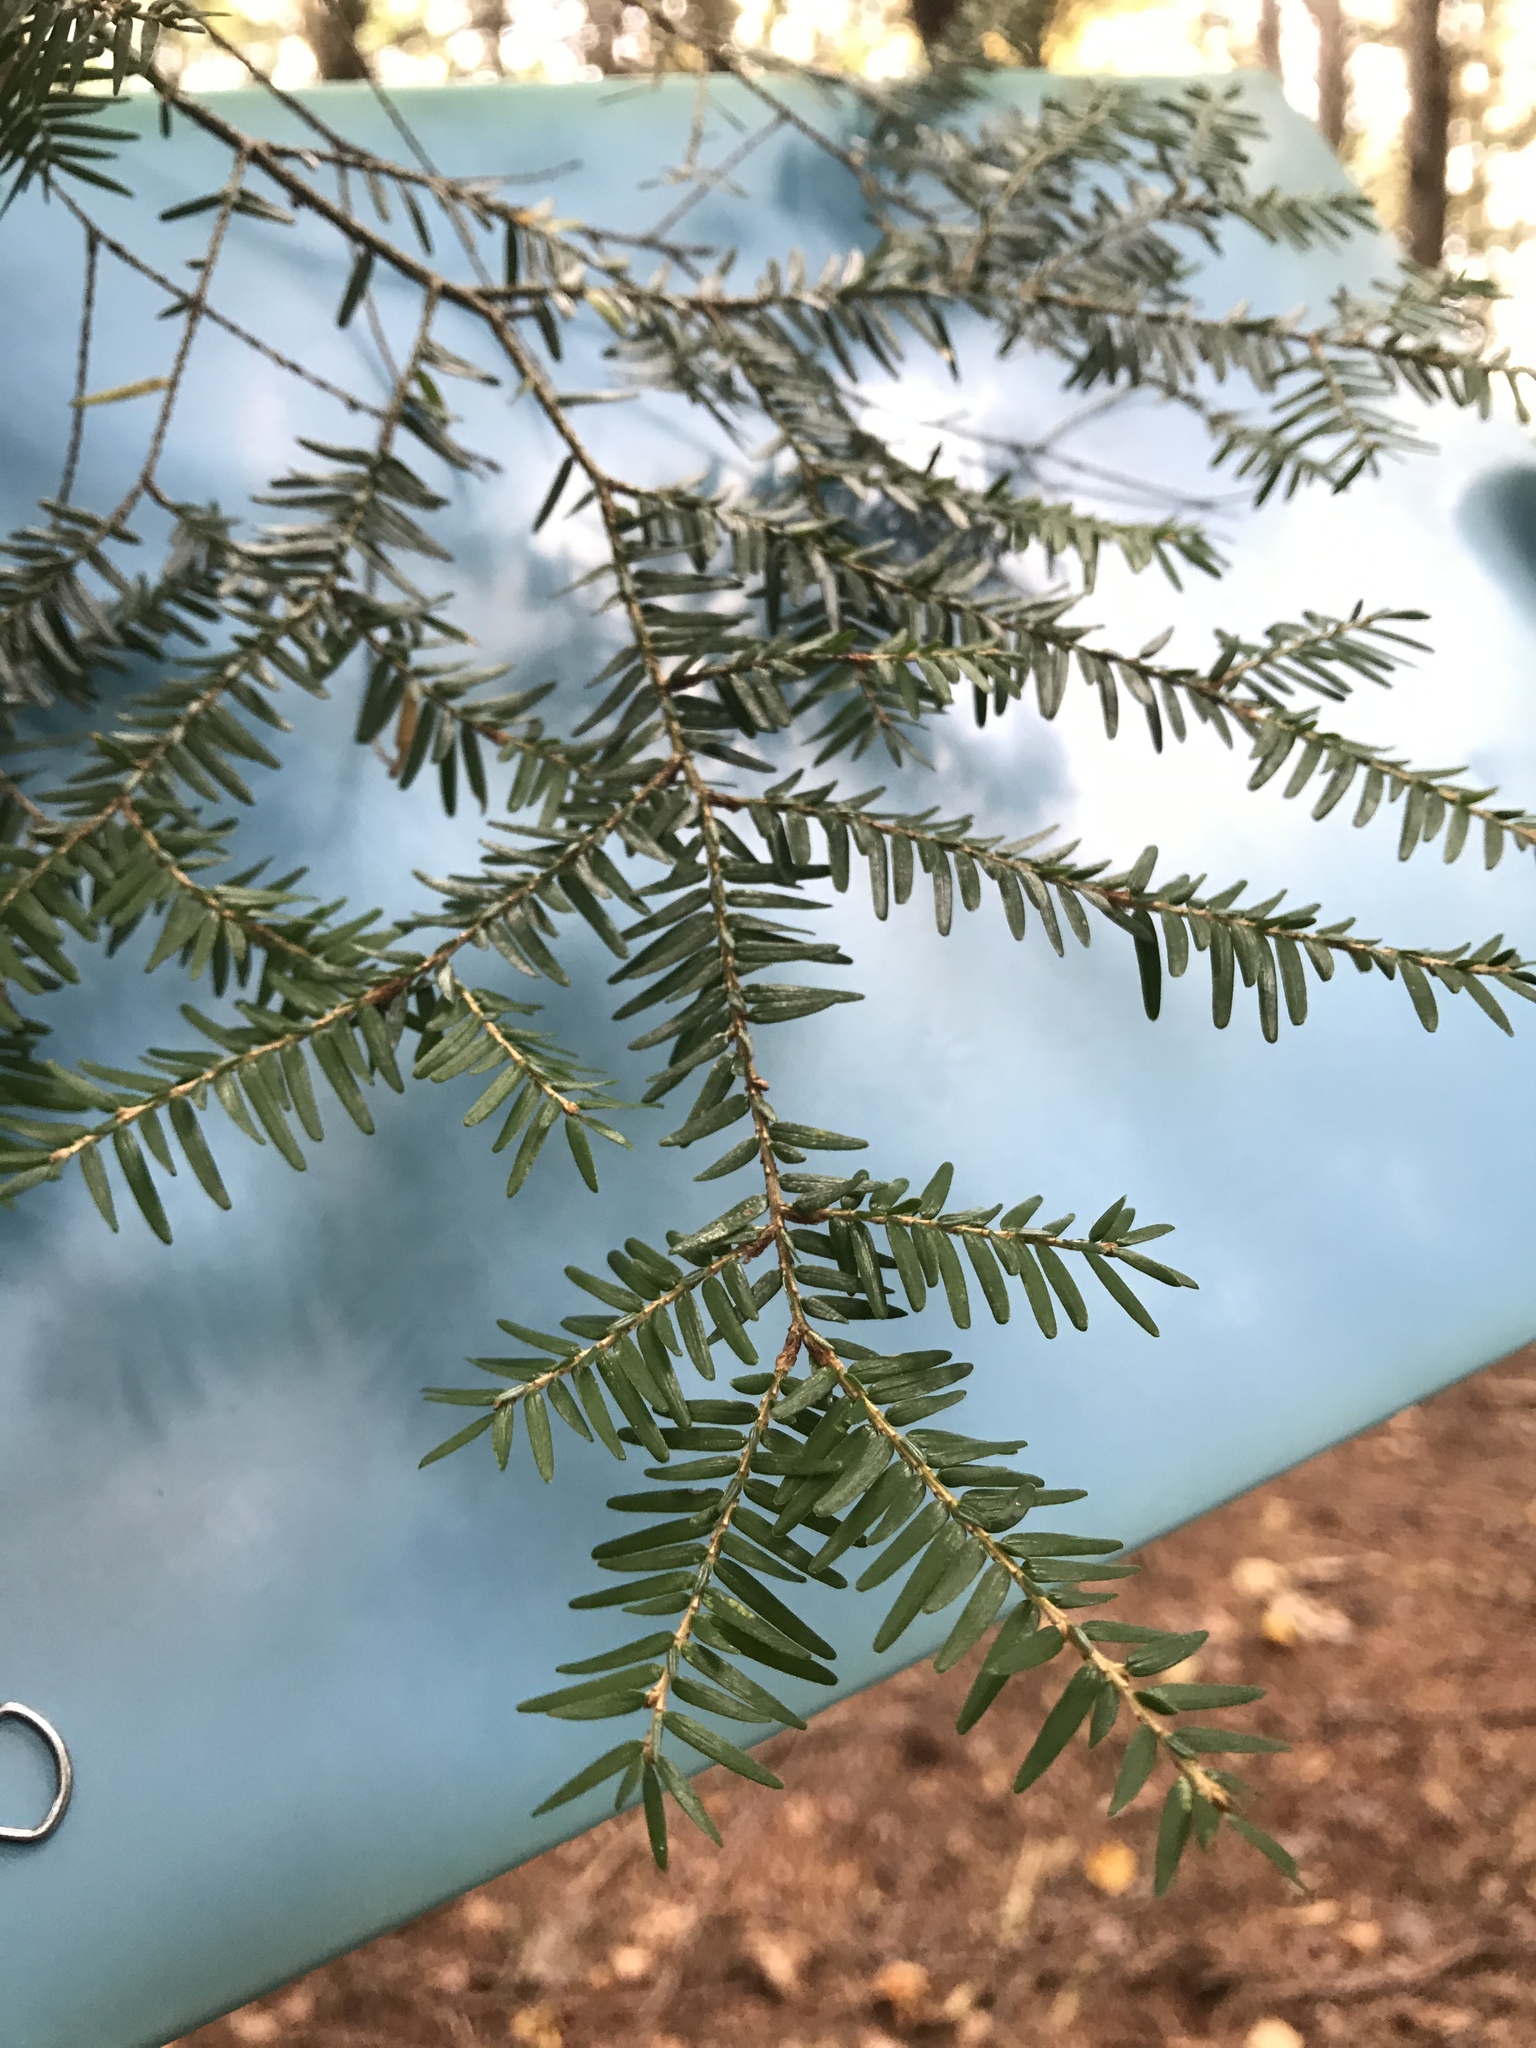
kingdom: Plantae
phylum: Tracheophyta
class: Pinopsida
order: Pinales
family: Pinaceae
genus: Tsuga
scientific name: Tsuga canadensis
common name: Eastern hemlock
